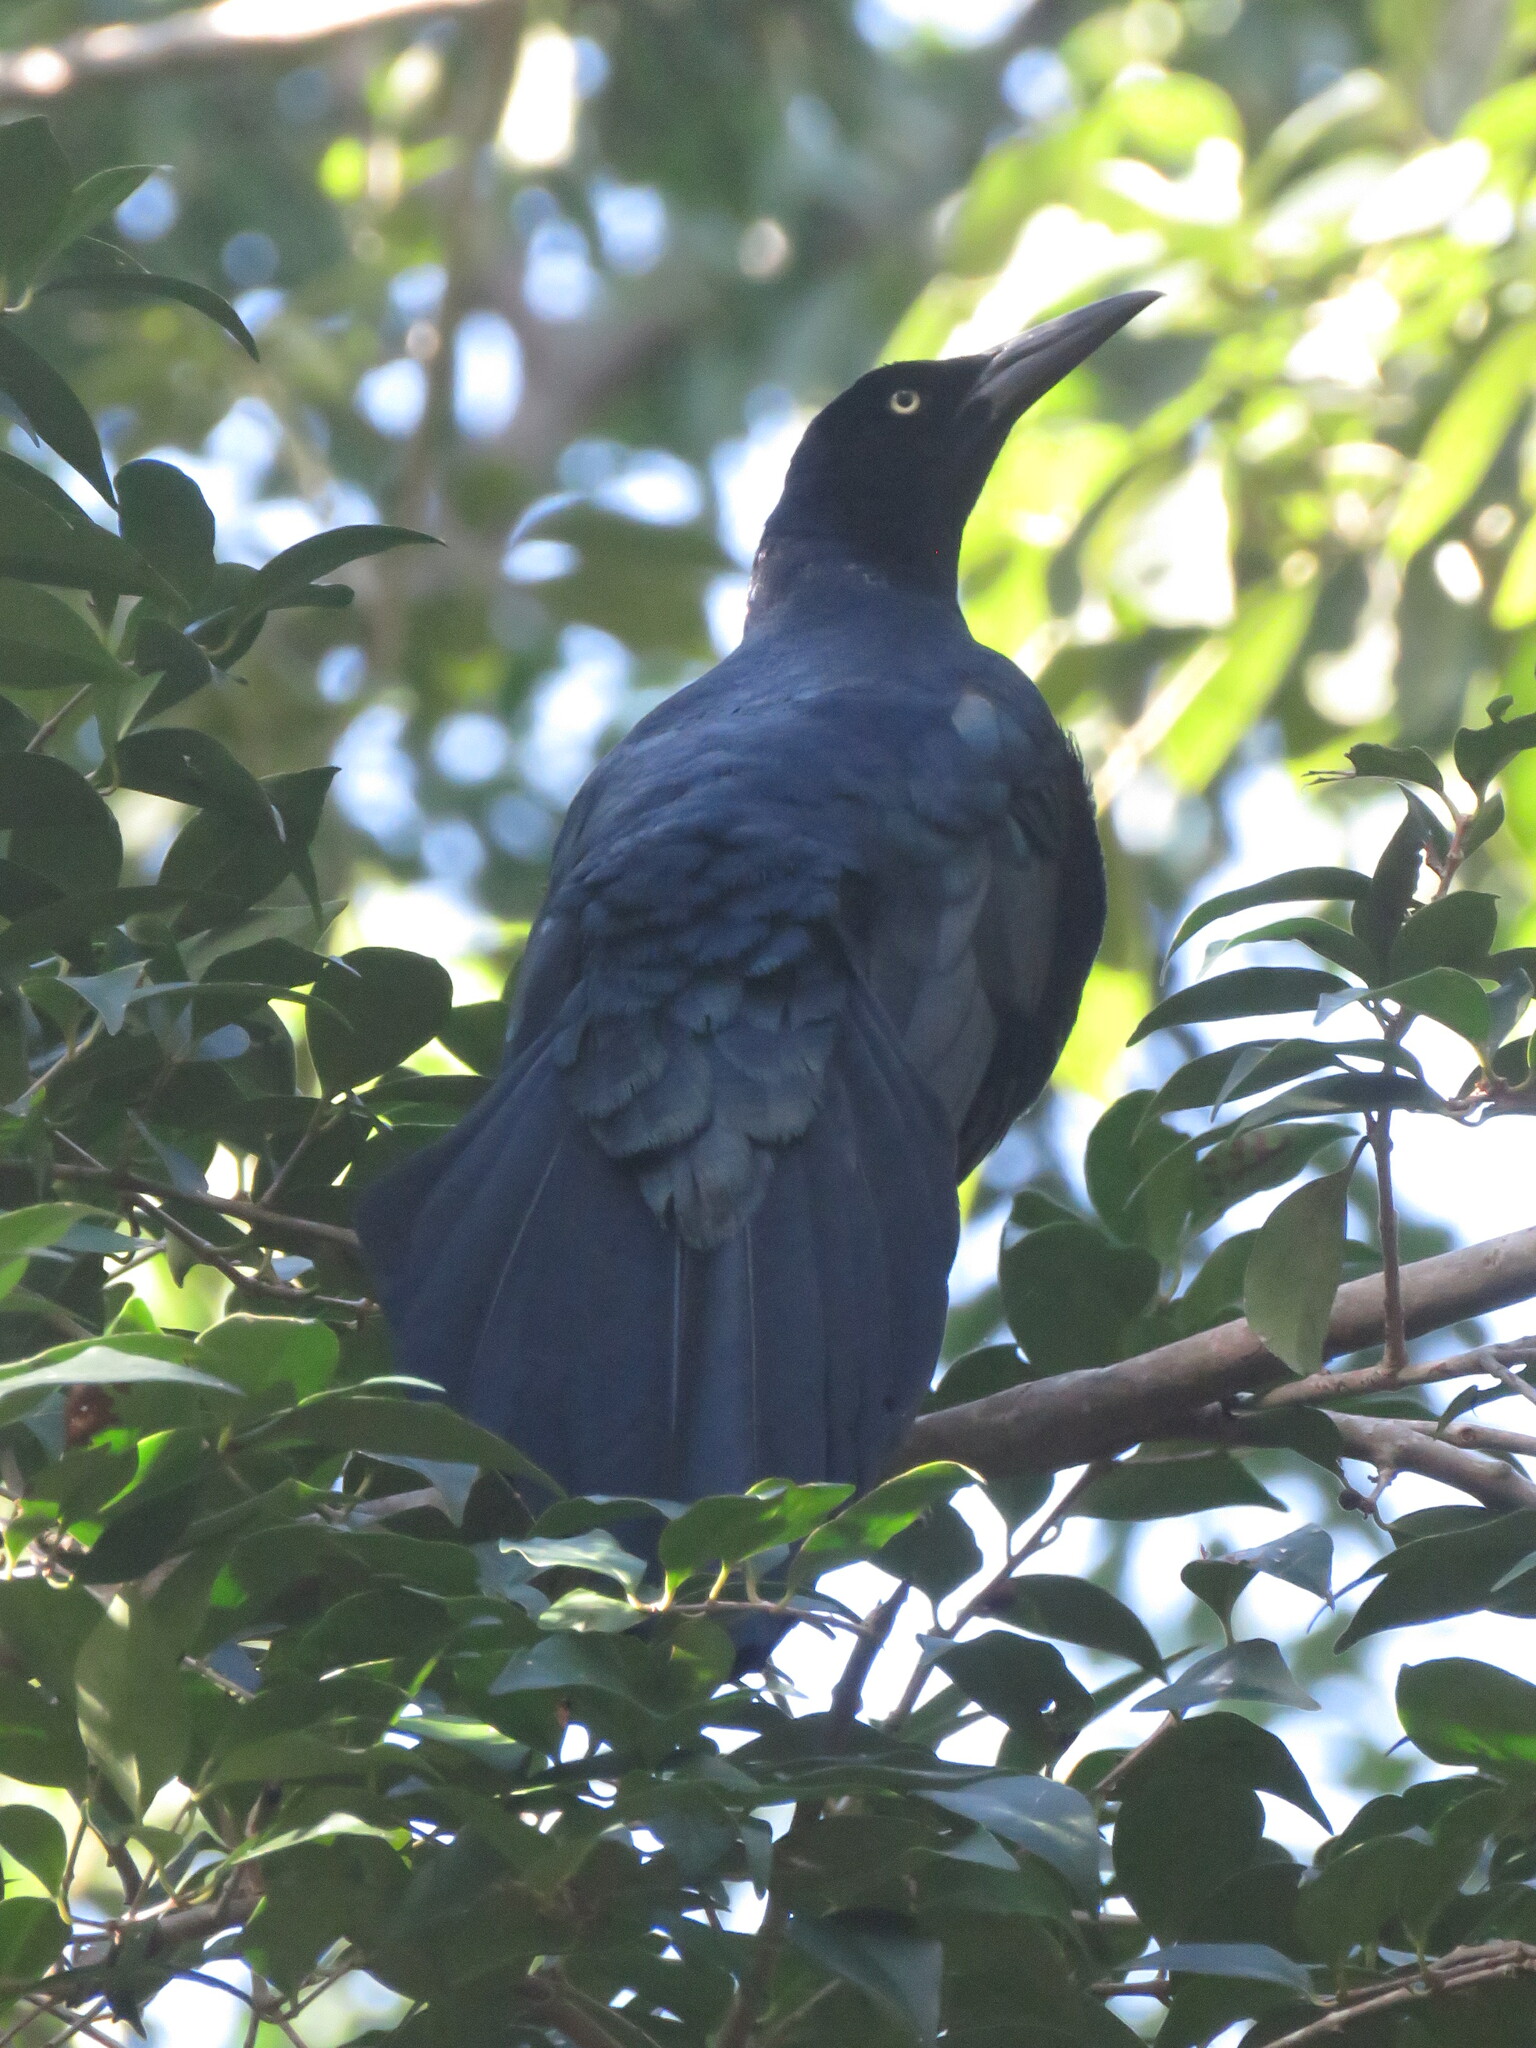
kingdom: Animalia
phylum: Chordata
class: Aves
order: Passeriformes
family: Icteridae
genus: Quiscalus
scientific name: Quiscalus mexicanus
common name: Great-tailed grackle
